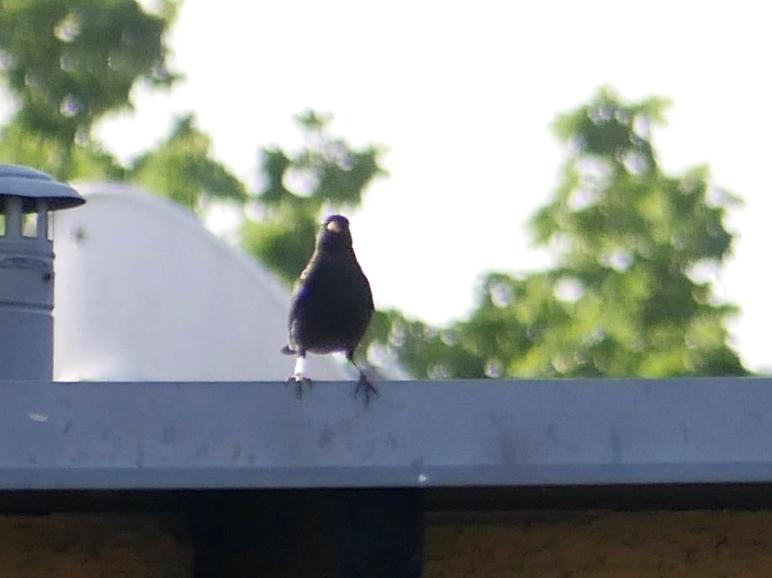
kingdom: Animalia
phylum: Chordata
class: Aves
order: Passeriformes
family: Turdidae
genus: Turdus
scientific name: Turdus merula
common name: Common blackbird
